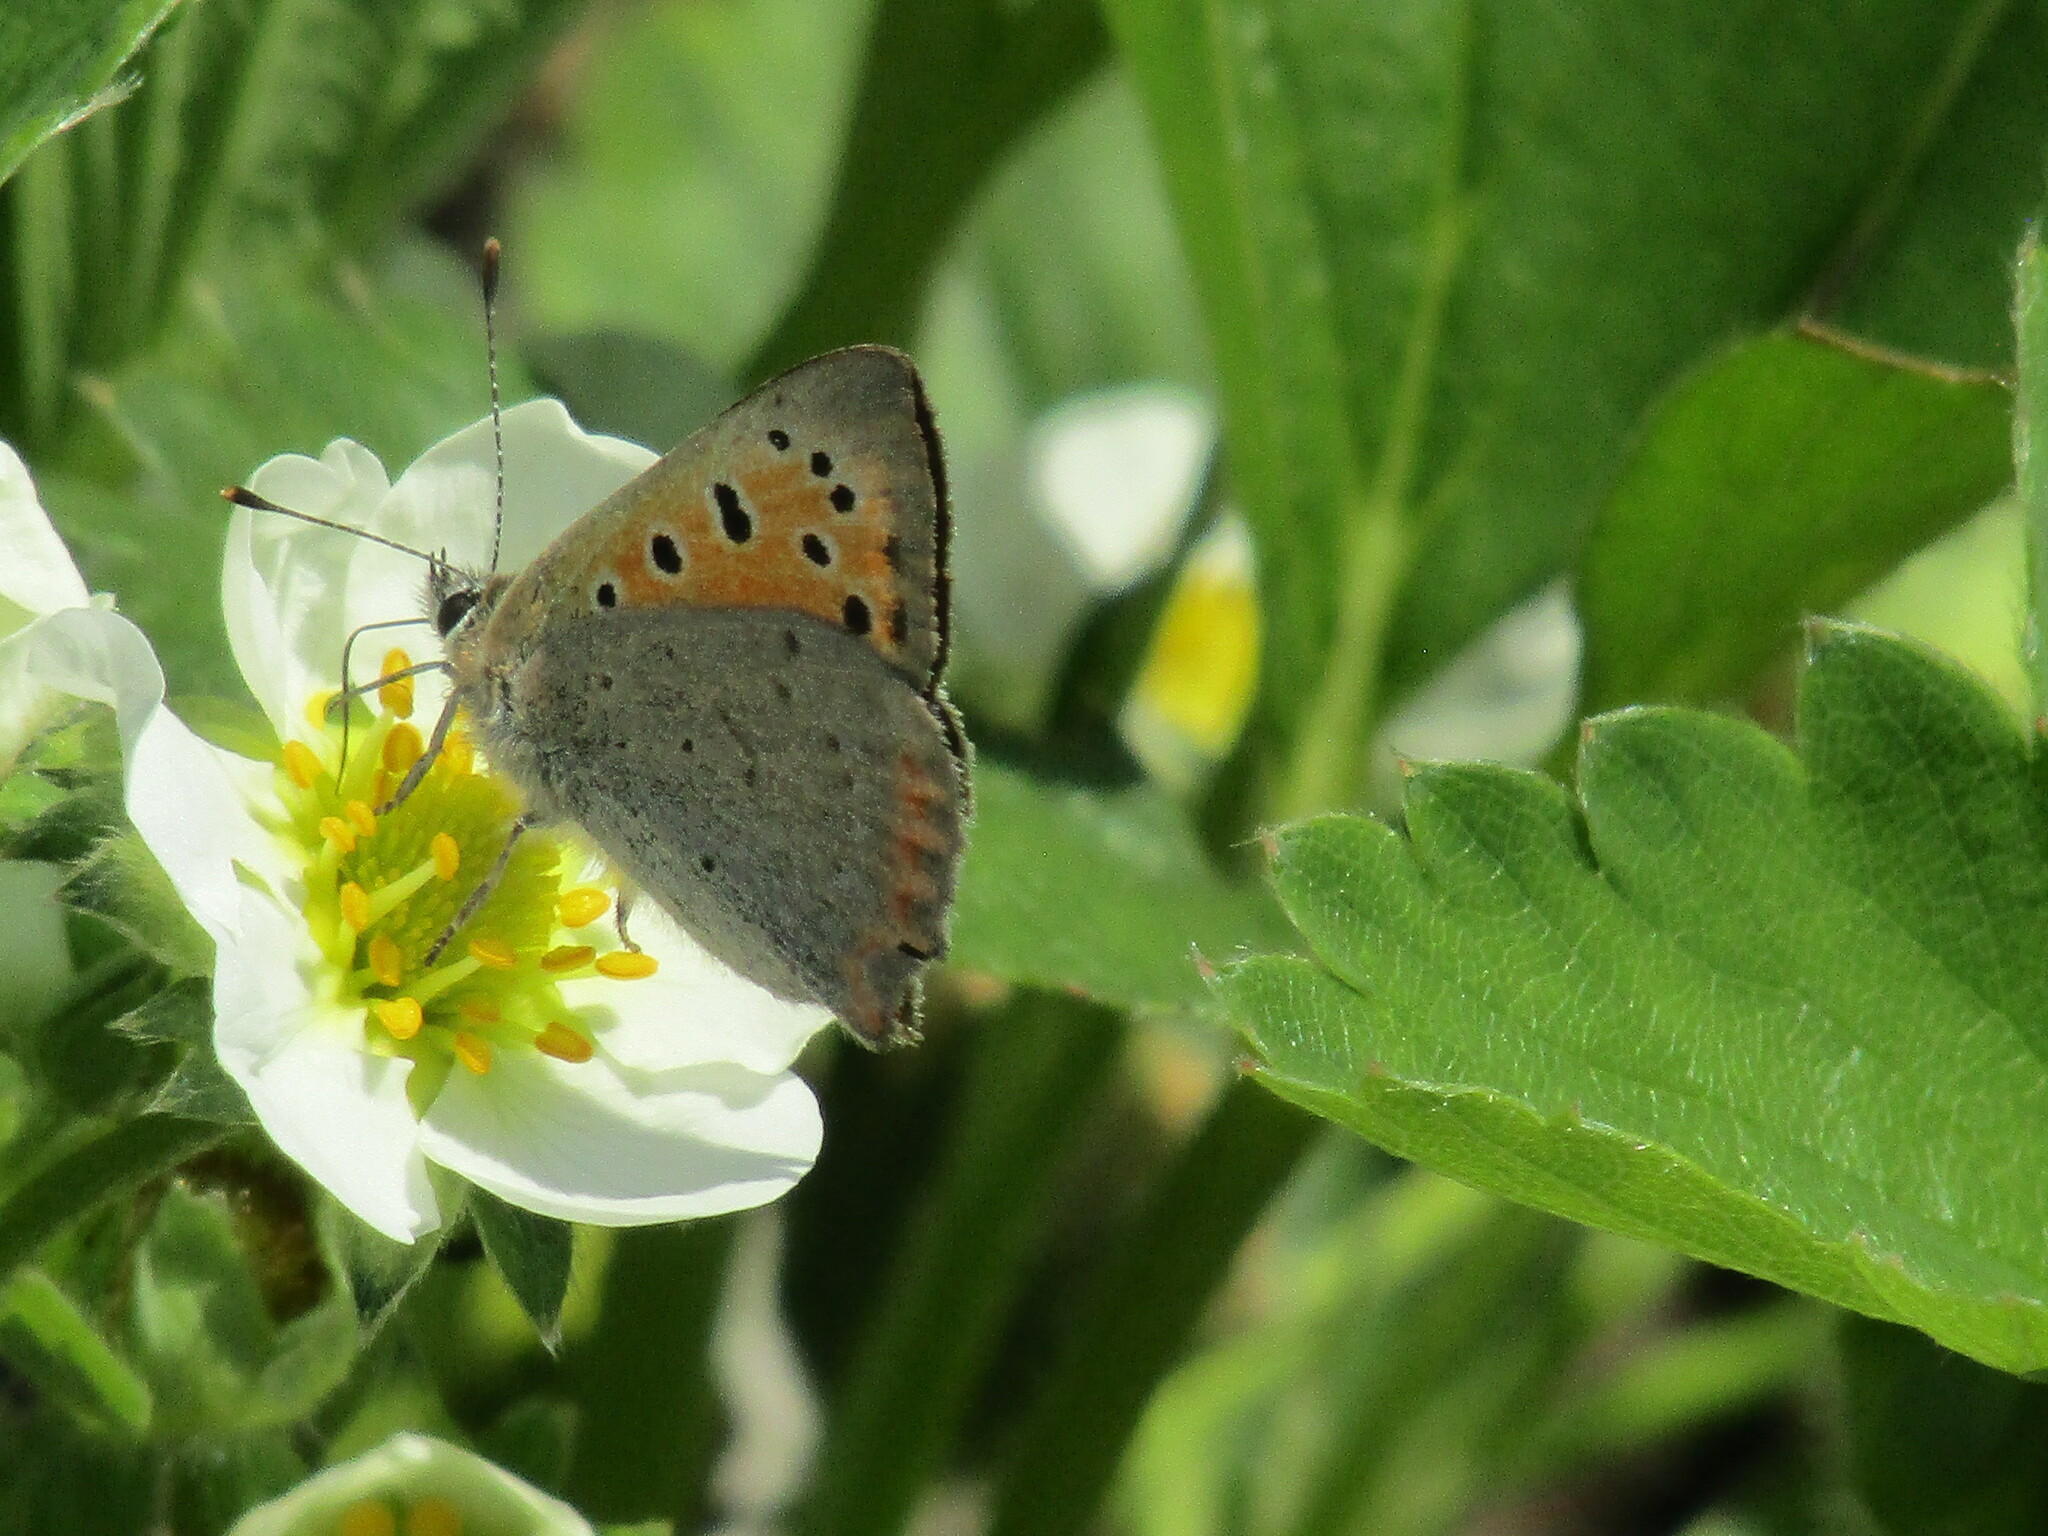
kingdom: Animalia
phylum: Arthropoda
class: Insecta
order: Lepidoptera
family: Lycaenidae
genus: Lycaena
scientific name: Lycaena phlaeas
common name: Small copper
